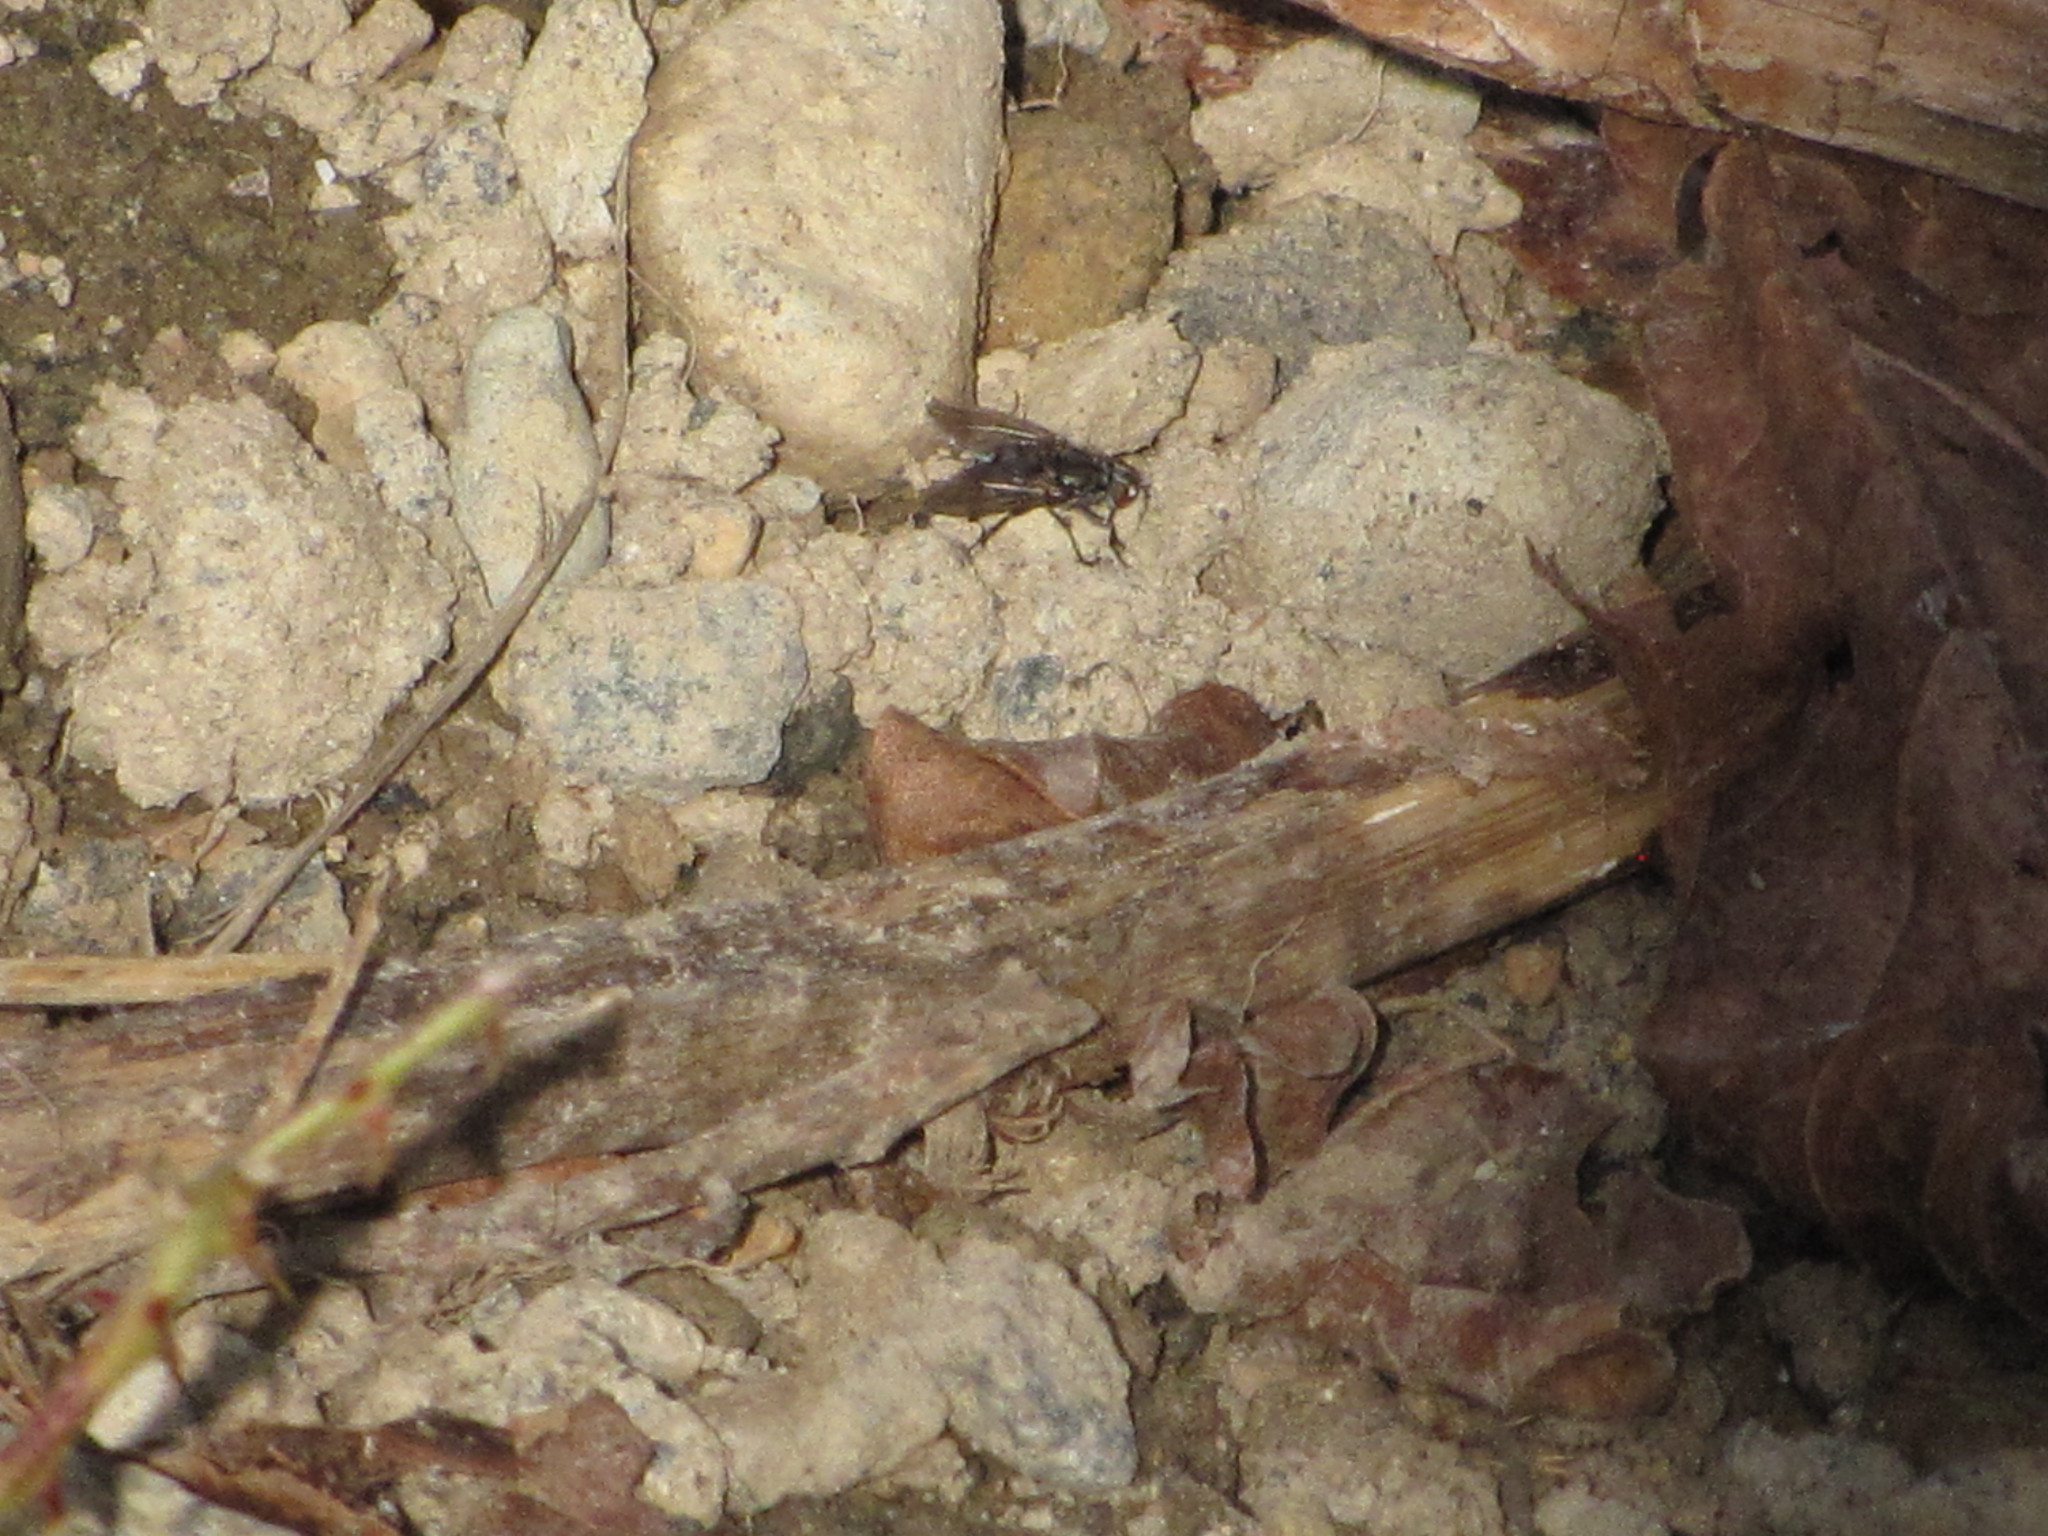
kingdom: Animalia
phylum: Arthropoda
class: Insecta
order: Diptera
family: Polleniidae
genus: Pollenia
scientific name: Pollenia vagabunda
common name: Vagabund cluster fly
